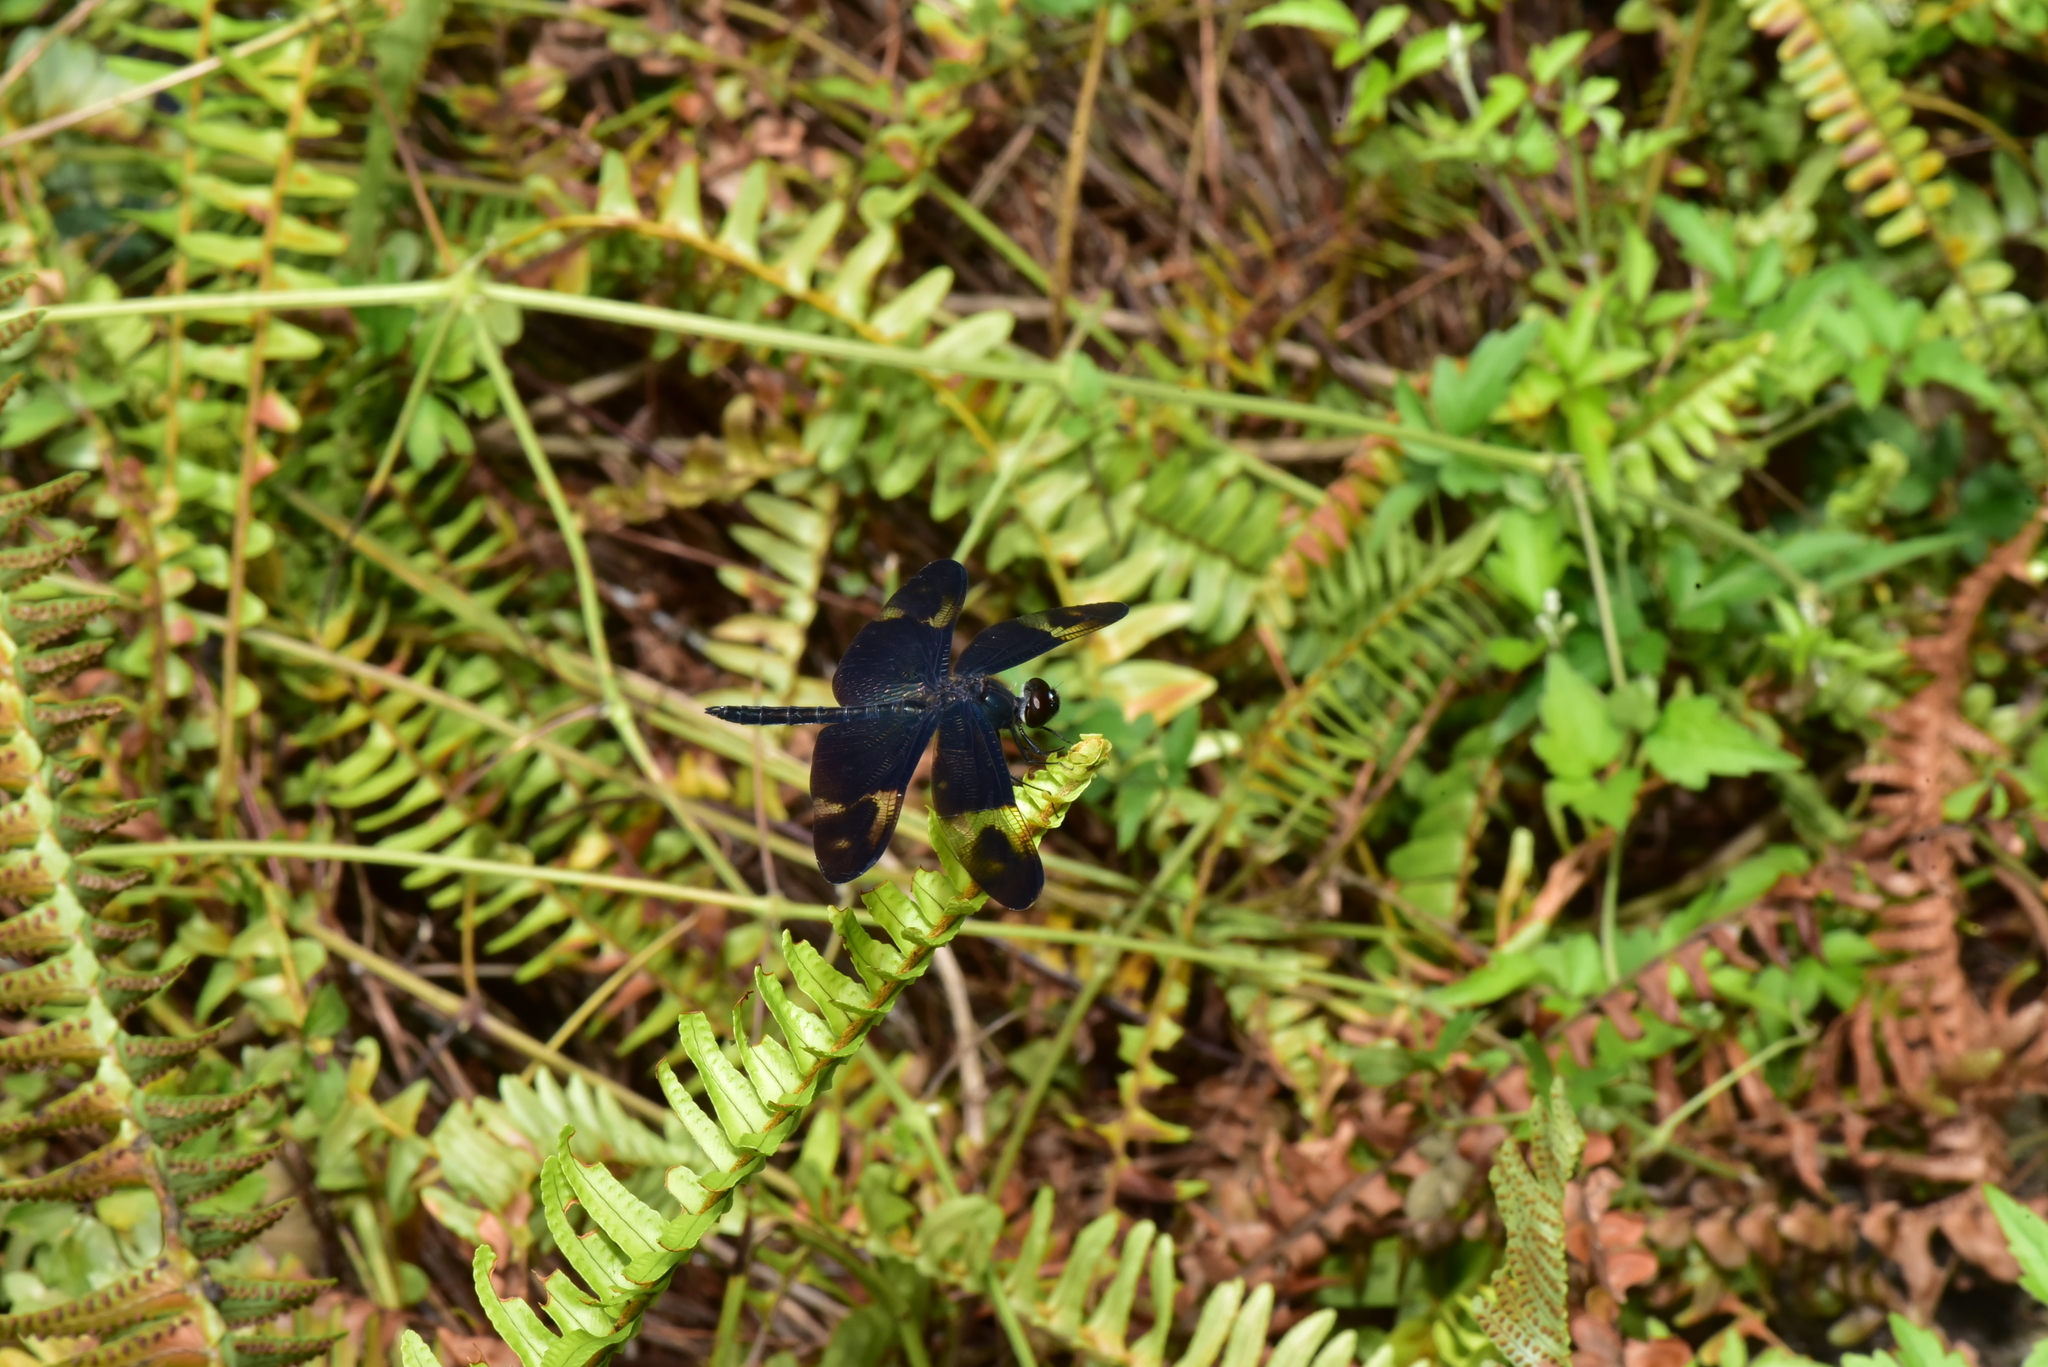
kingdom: Animalia
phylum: Arthropoda
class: Insecta
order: Odonata
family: Libellulidae
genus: Rhyothemis
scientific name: Rhyothemis regia
